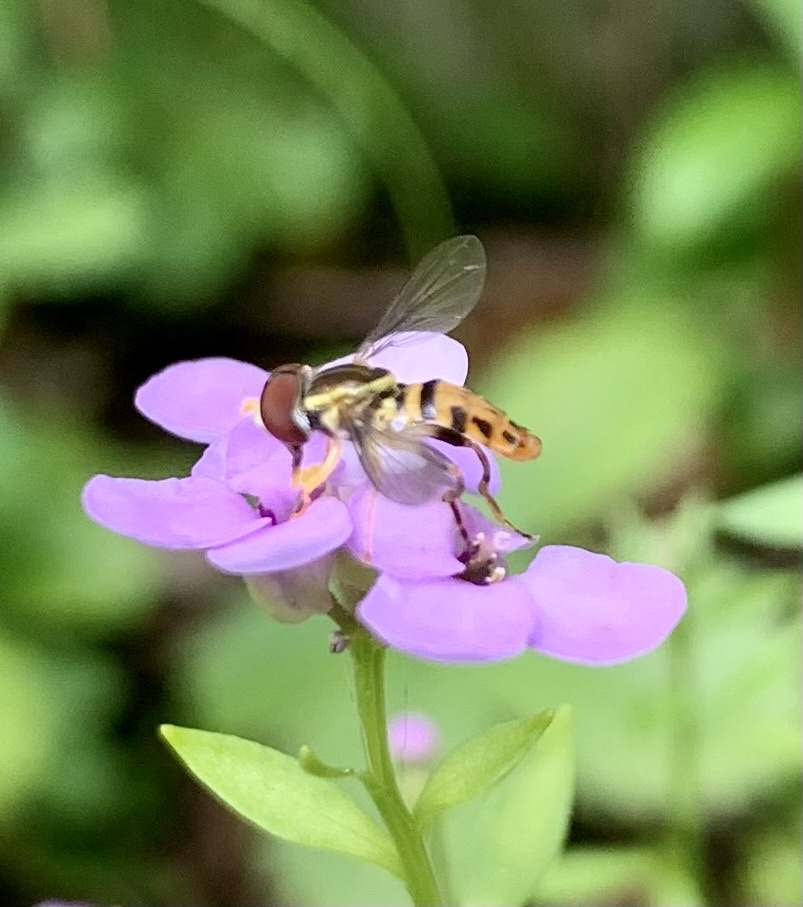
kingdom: Animalia
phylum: Arthropoda
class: Insecta
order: Diptera
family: Syrphidae
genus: Toxomerus
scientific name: Toxomerus geminatus
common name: Eastern calligrapher
